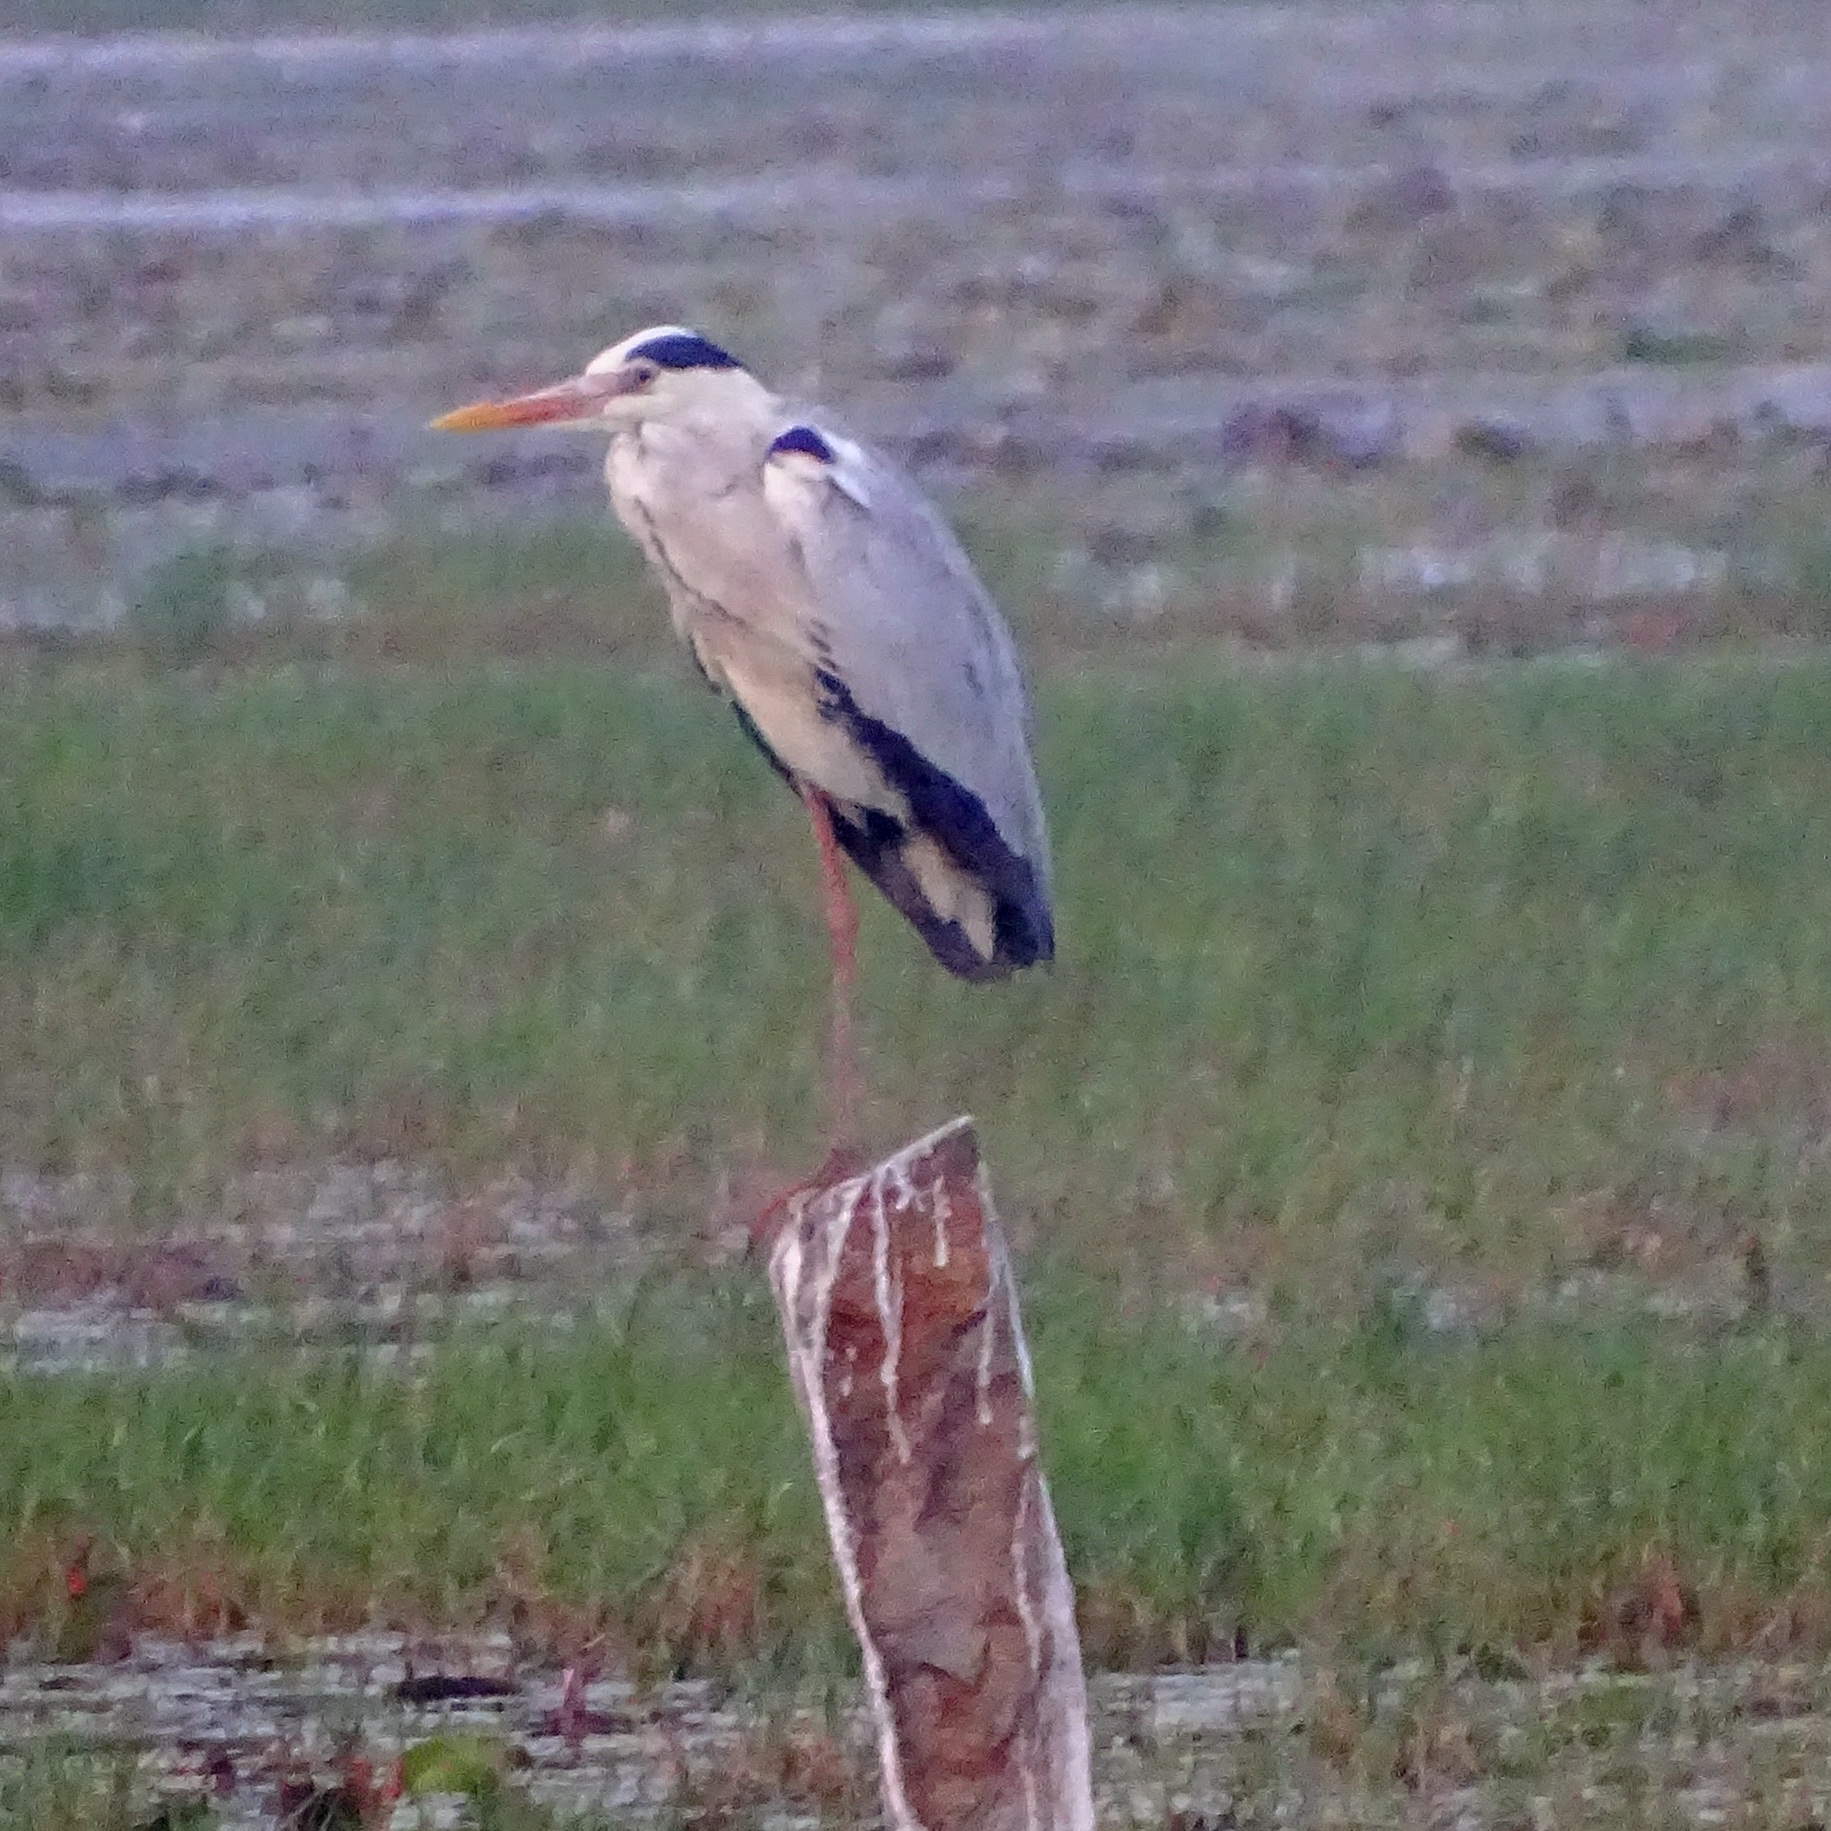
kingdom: Animalia
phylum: Chordata
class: Aves
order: Pelecaniformes
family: Ardeidae
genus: Ardea
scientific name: Ardea cinerea
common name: Grey heron
